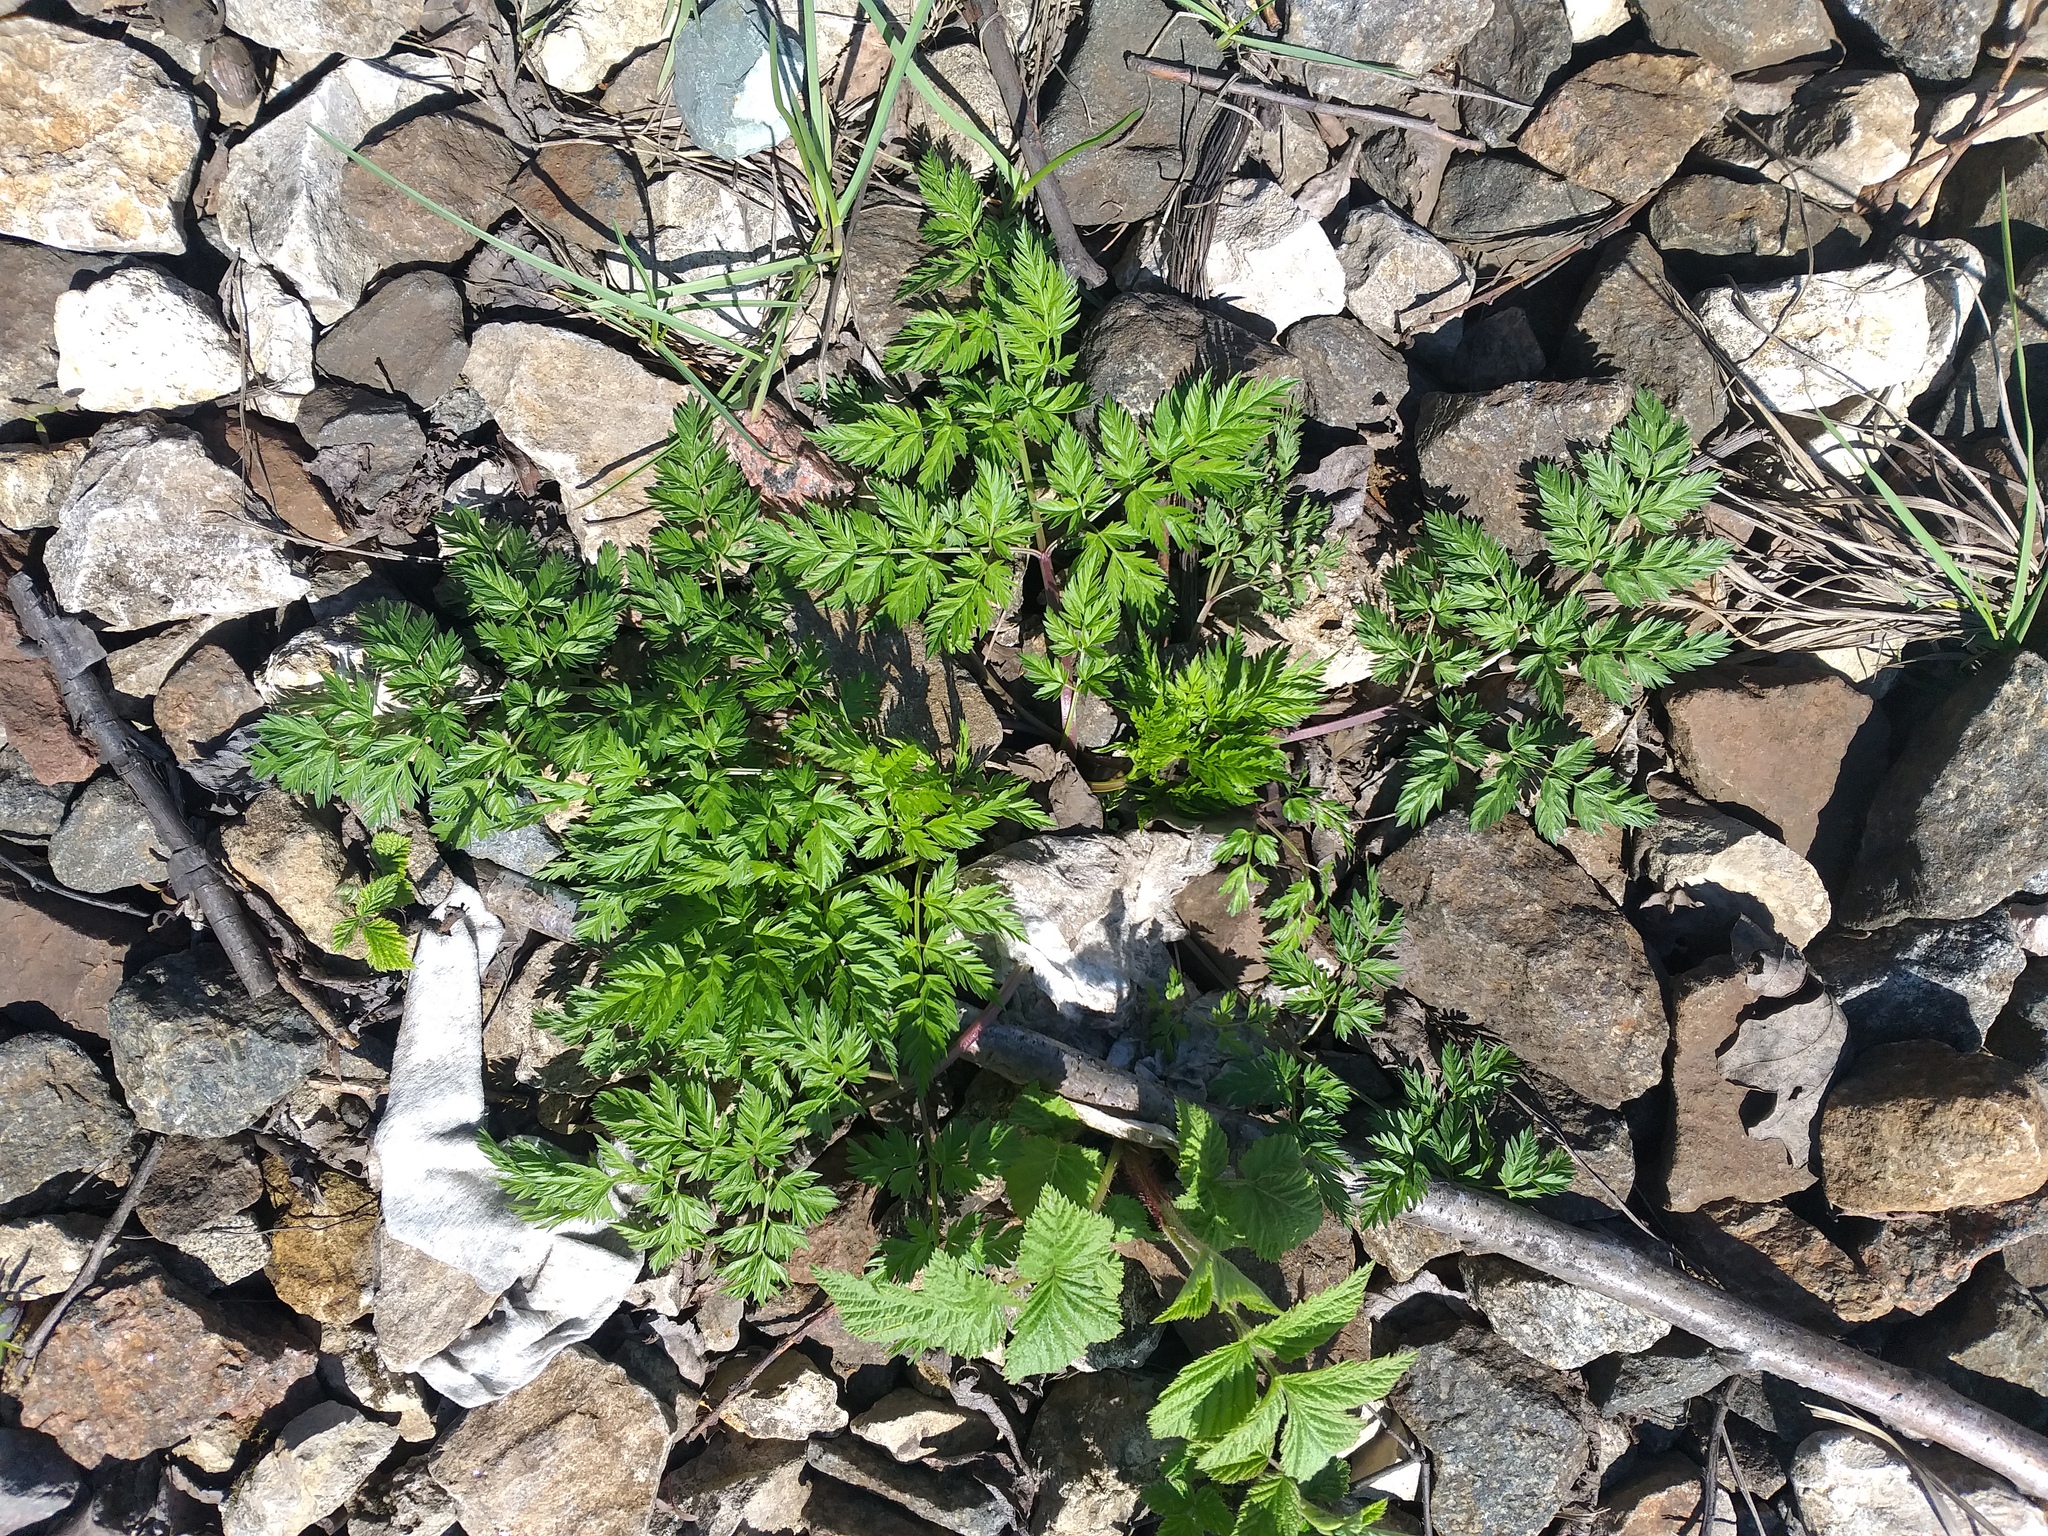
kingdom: Plantae
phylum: Tracheophyta
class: Magnoliopsida
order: Apiales
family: Apiaceae
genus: Anthriscus
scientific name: Anthriscus sylvestris
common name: Cow parsley
